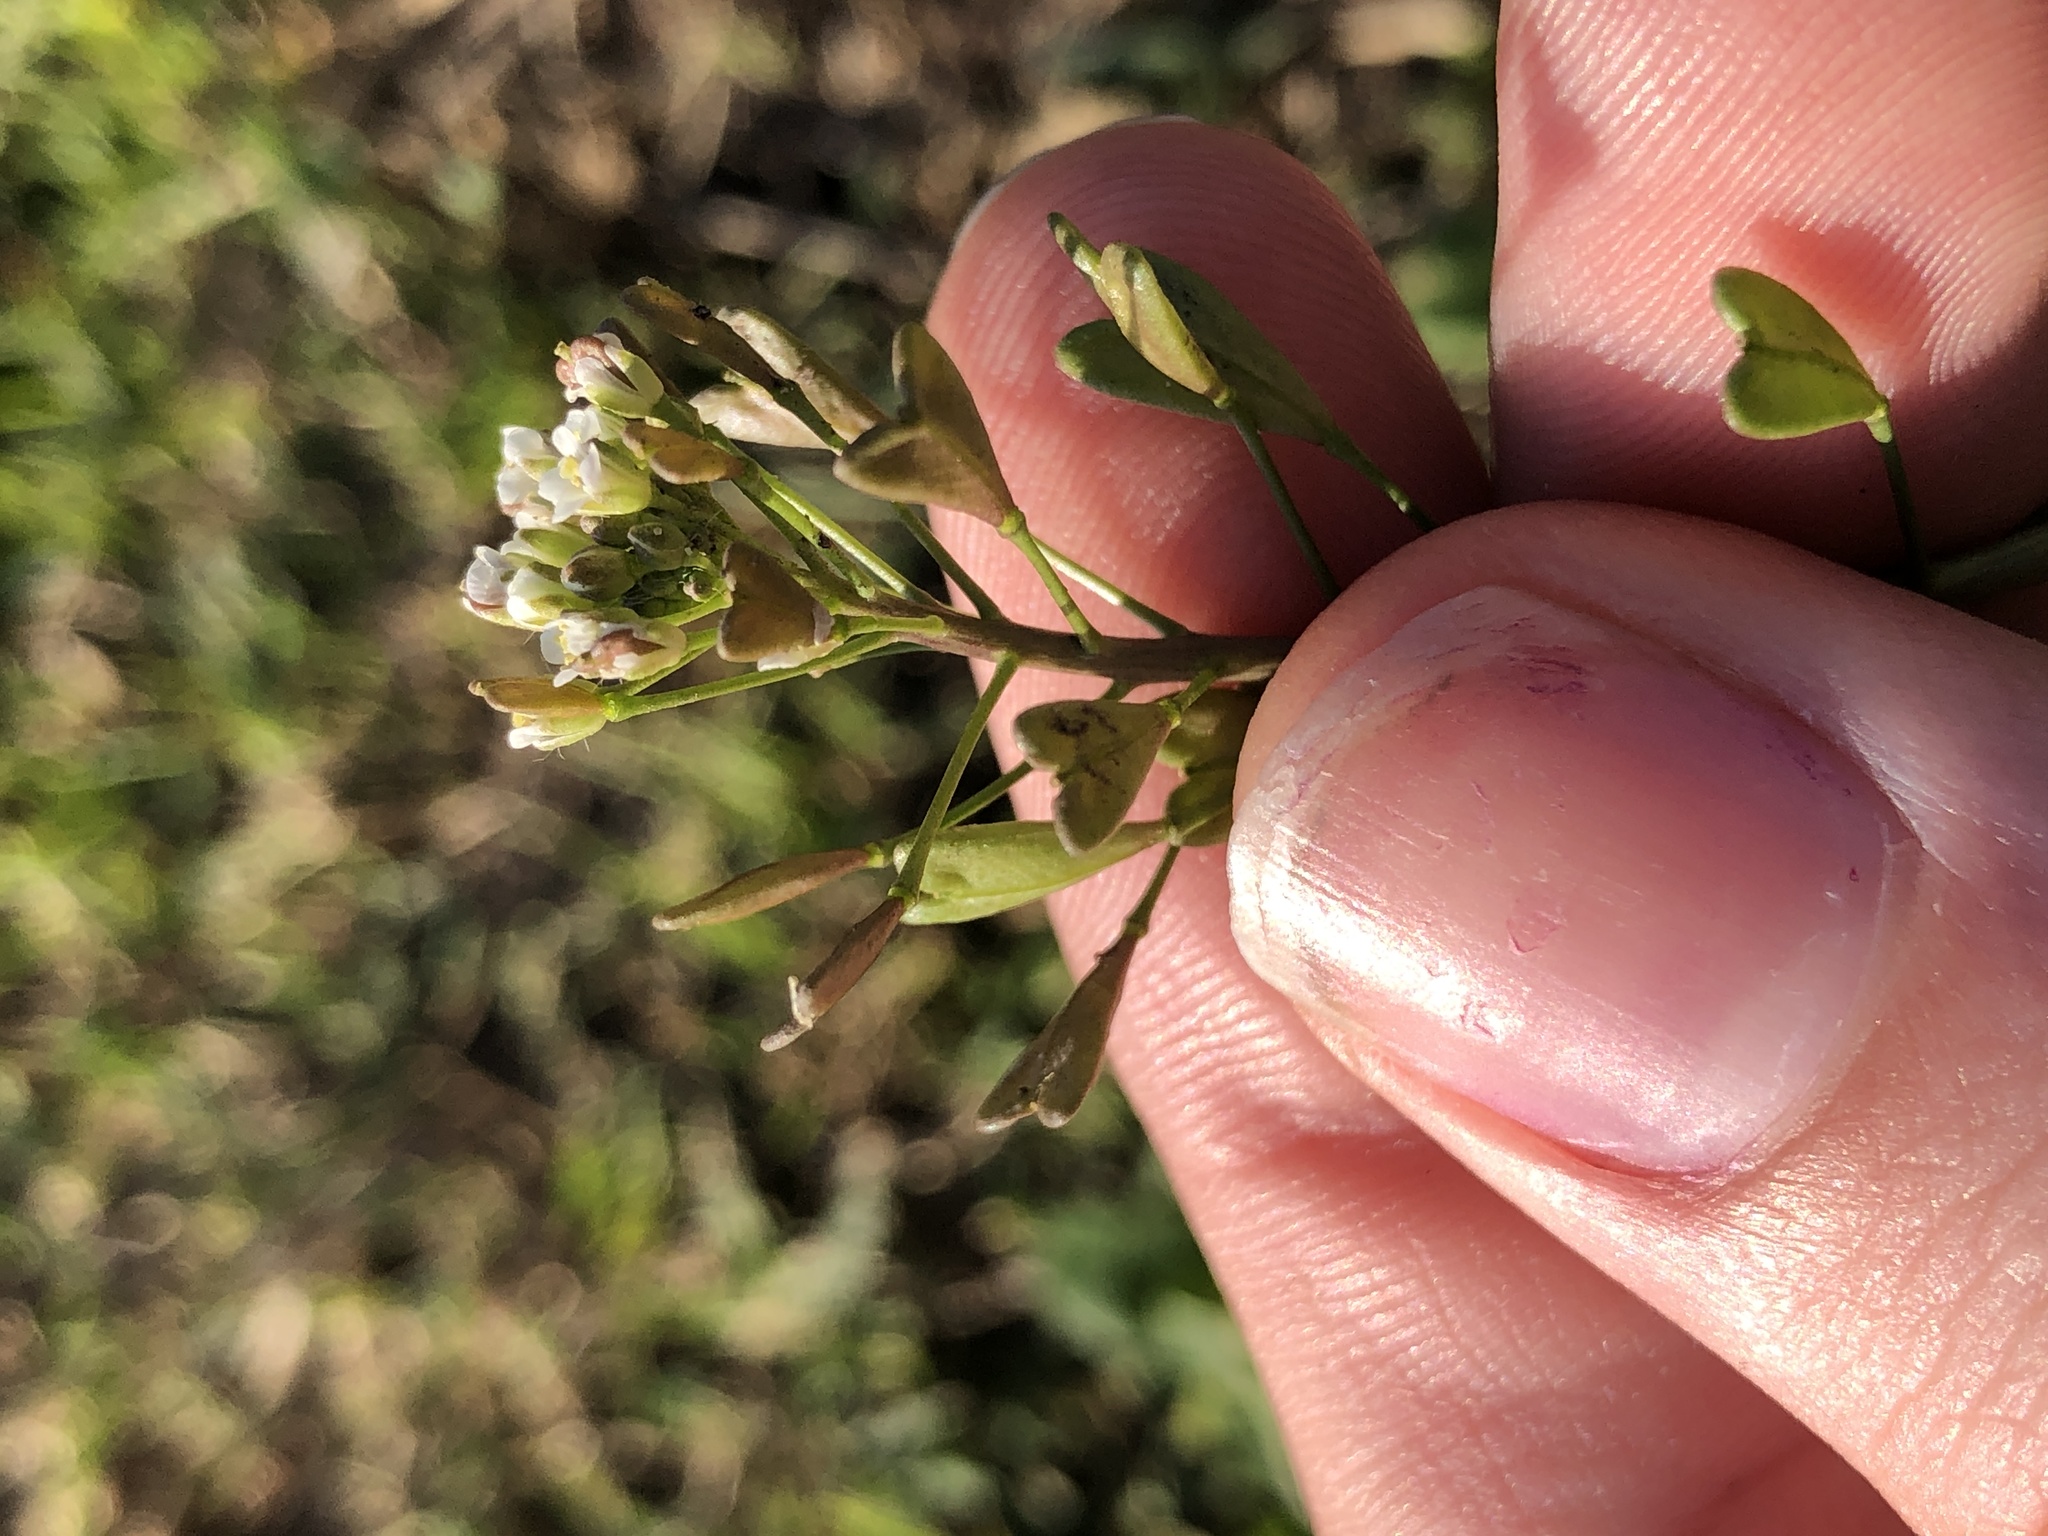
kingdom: Plantae
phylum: Tracheophyta
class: Magnoliopsida
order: Brassicales
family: Brassicaceae
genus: Capsella
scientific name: Capsella bursa-pastoris
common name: Shepherd's purse
